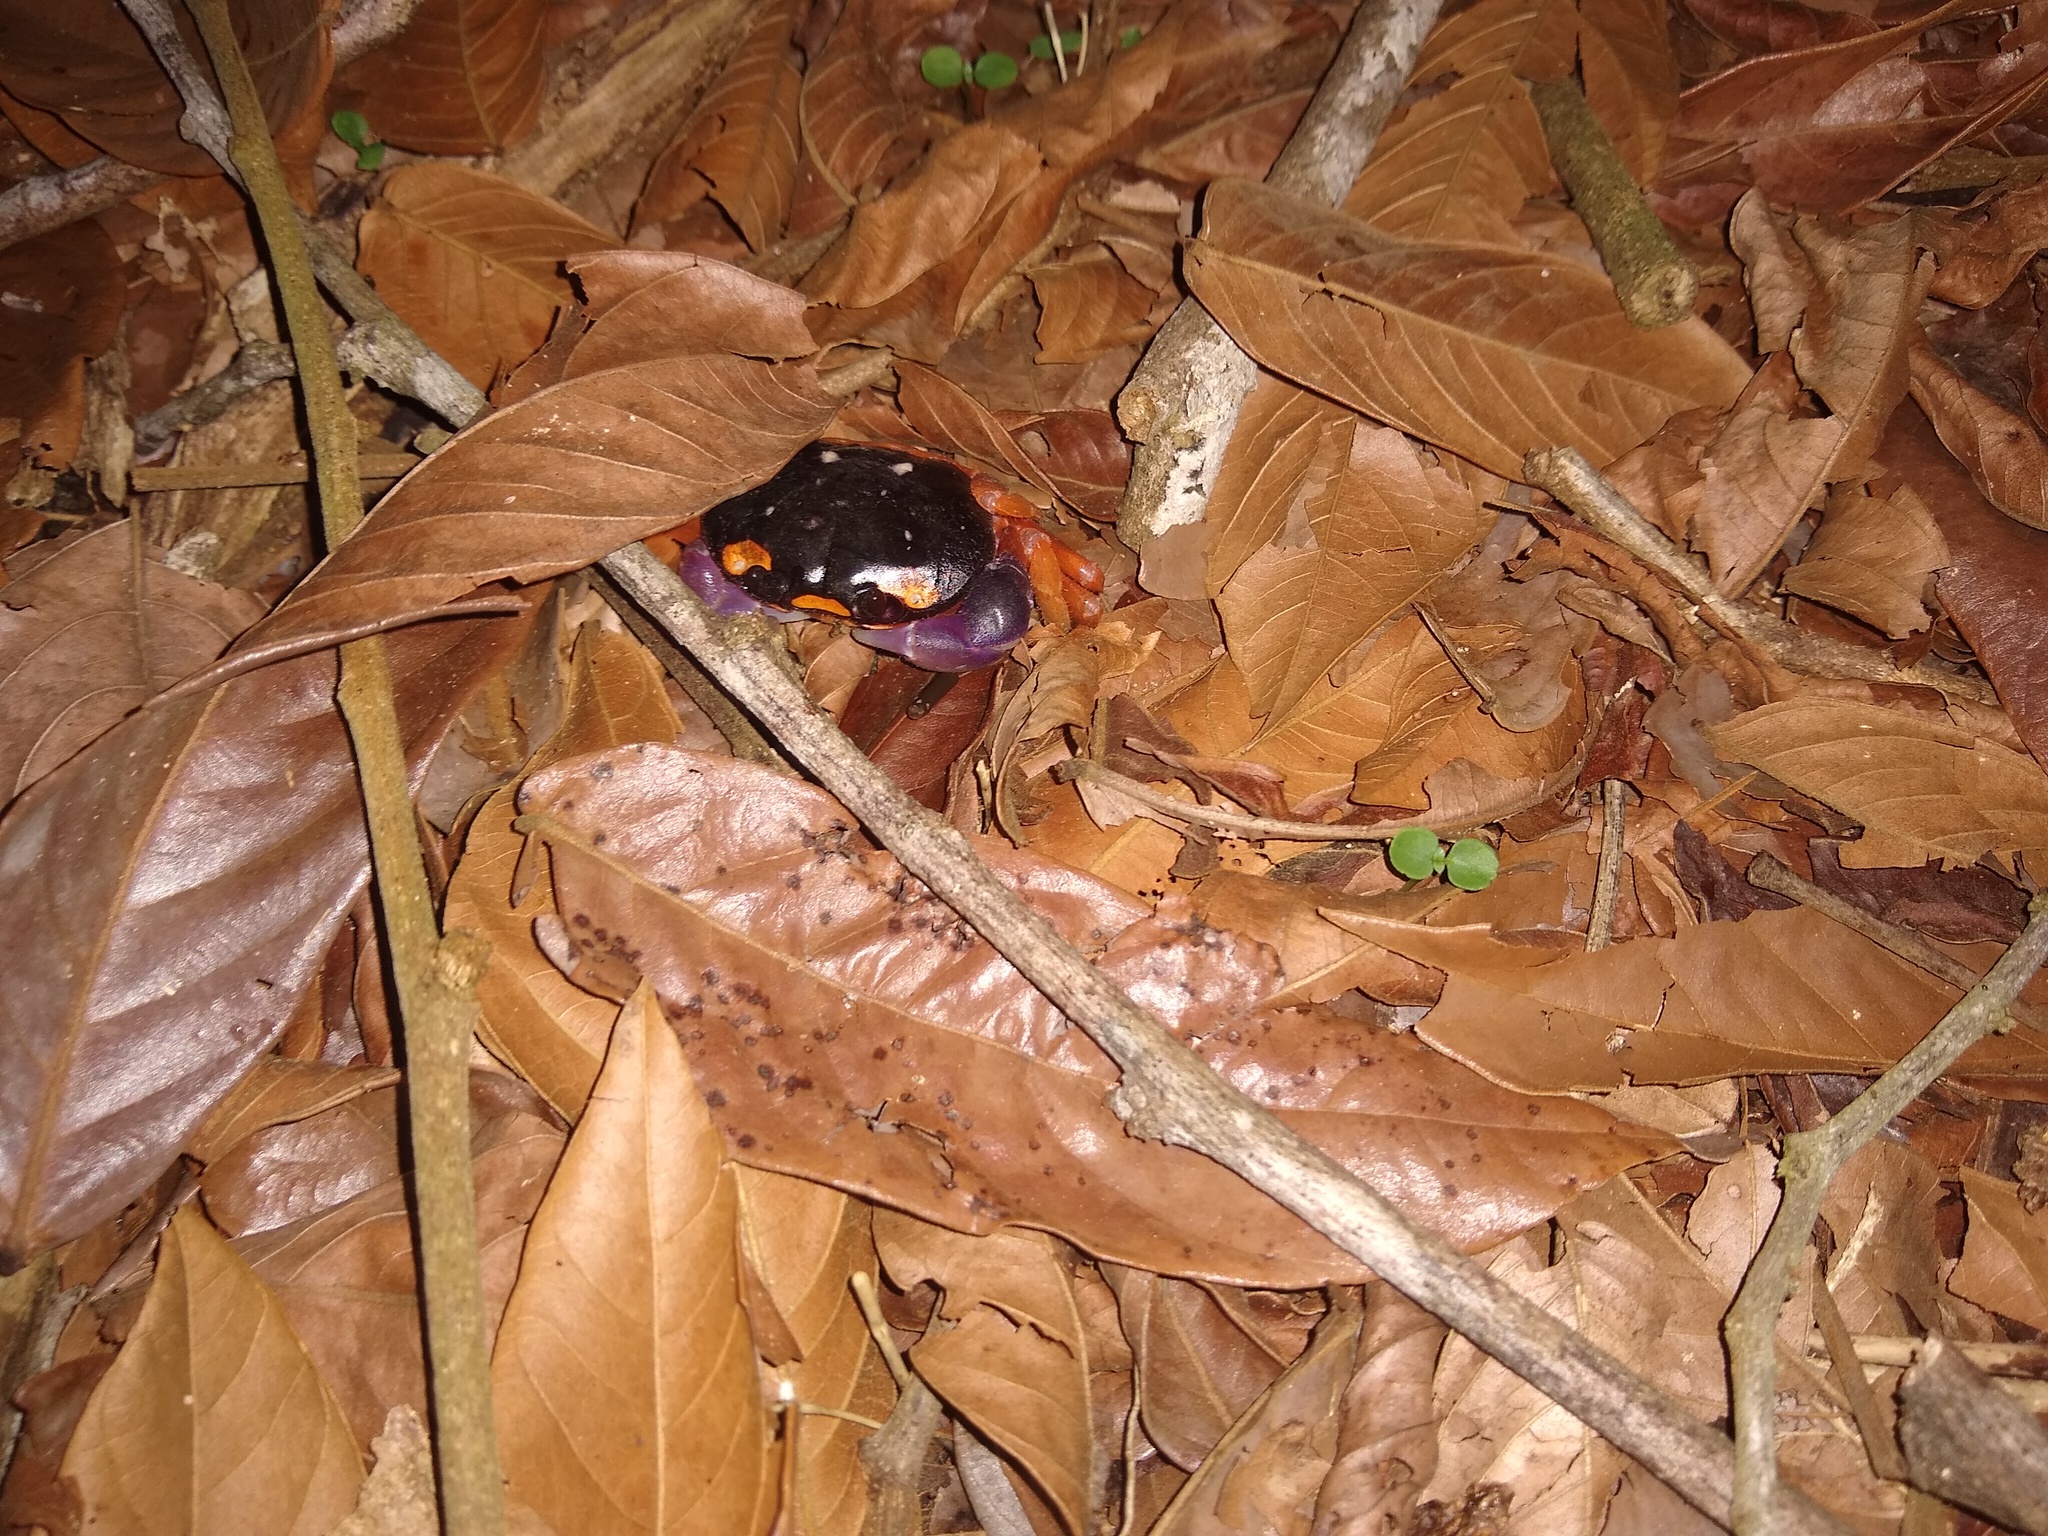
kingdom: Animalia
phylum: Arthropoda
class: Malacostraca
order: Decapoda
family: Gecarcinidae
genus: Gecarcinus
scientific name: Gecarcinus quadratus
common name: Halloween crab
